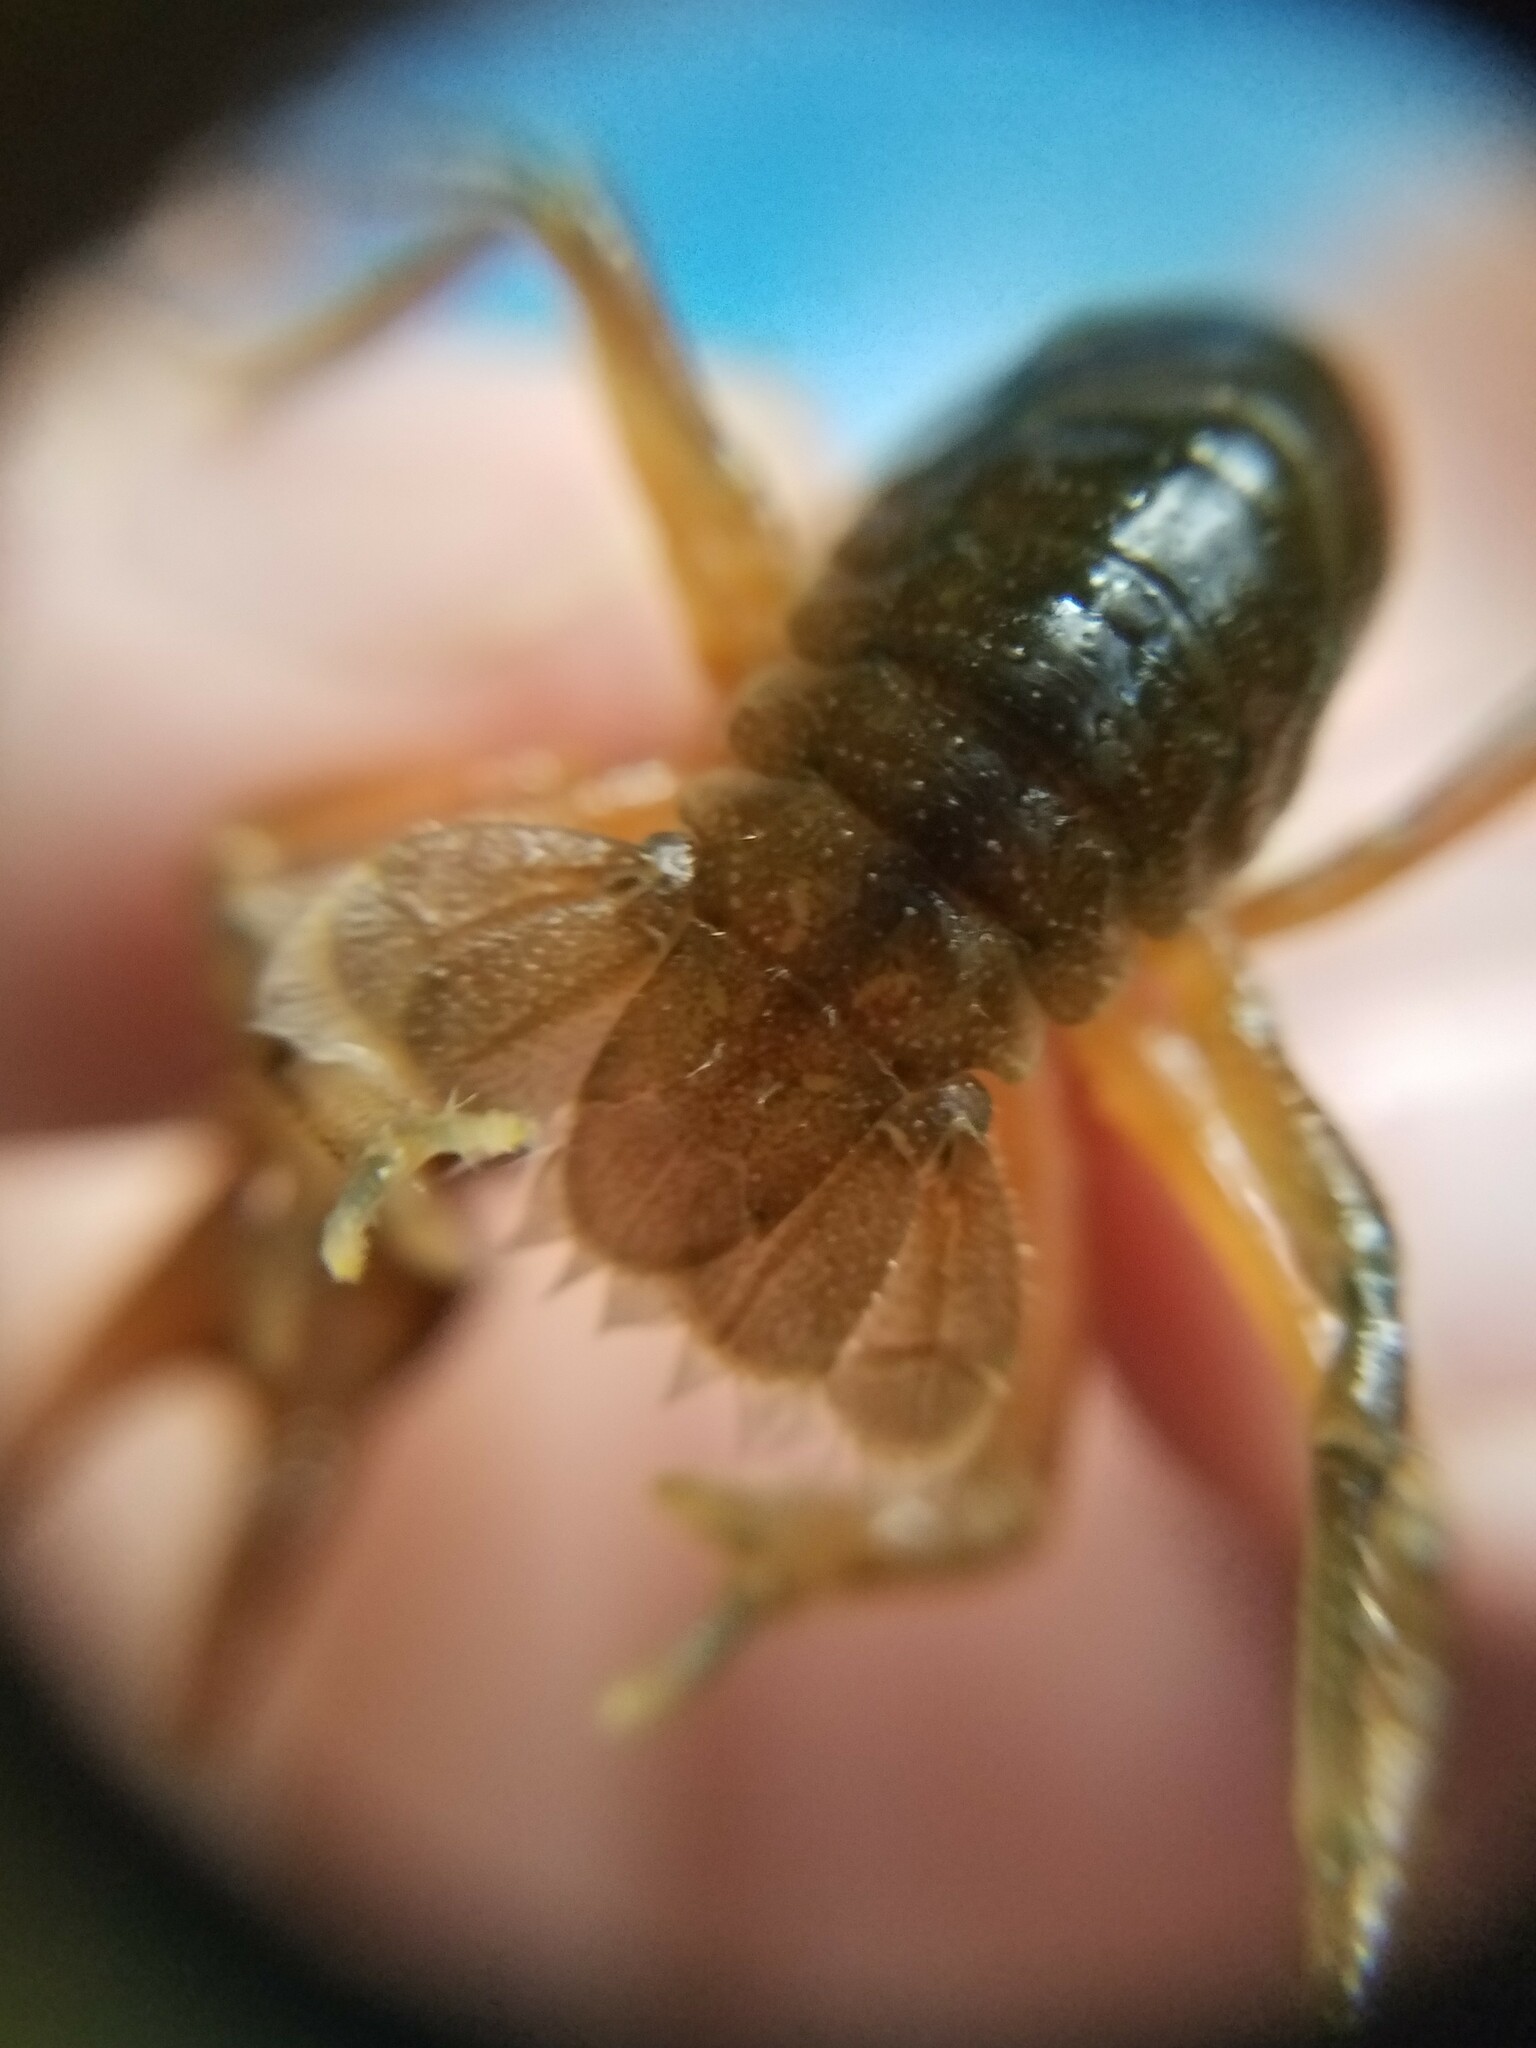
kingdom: Animalia
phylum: Arthropoda
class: Malacostraca
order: Decapoda
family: Cambaridae
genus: Cambarus
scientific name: Cambarus nodosus
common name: Knotty burrowing crayfish
